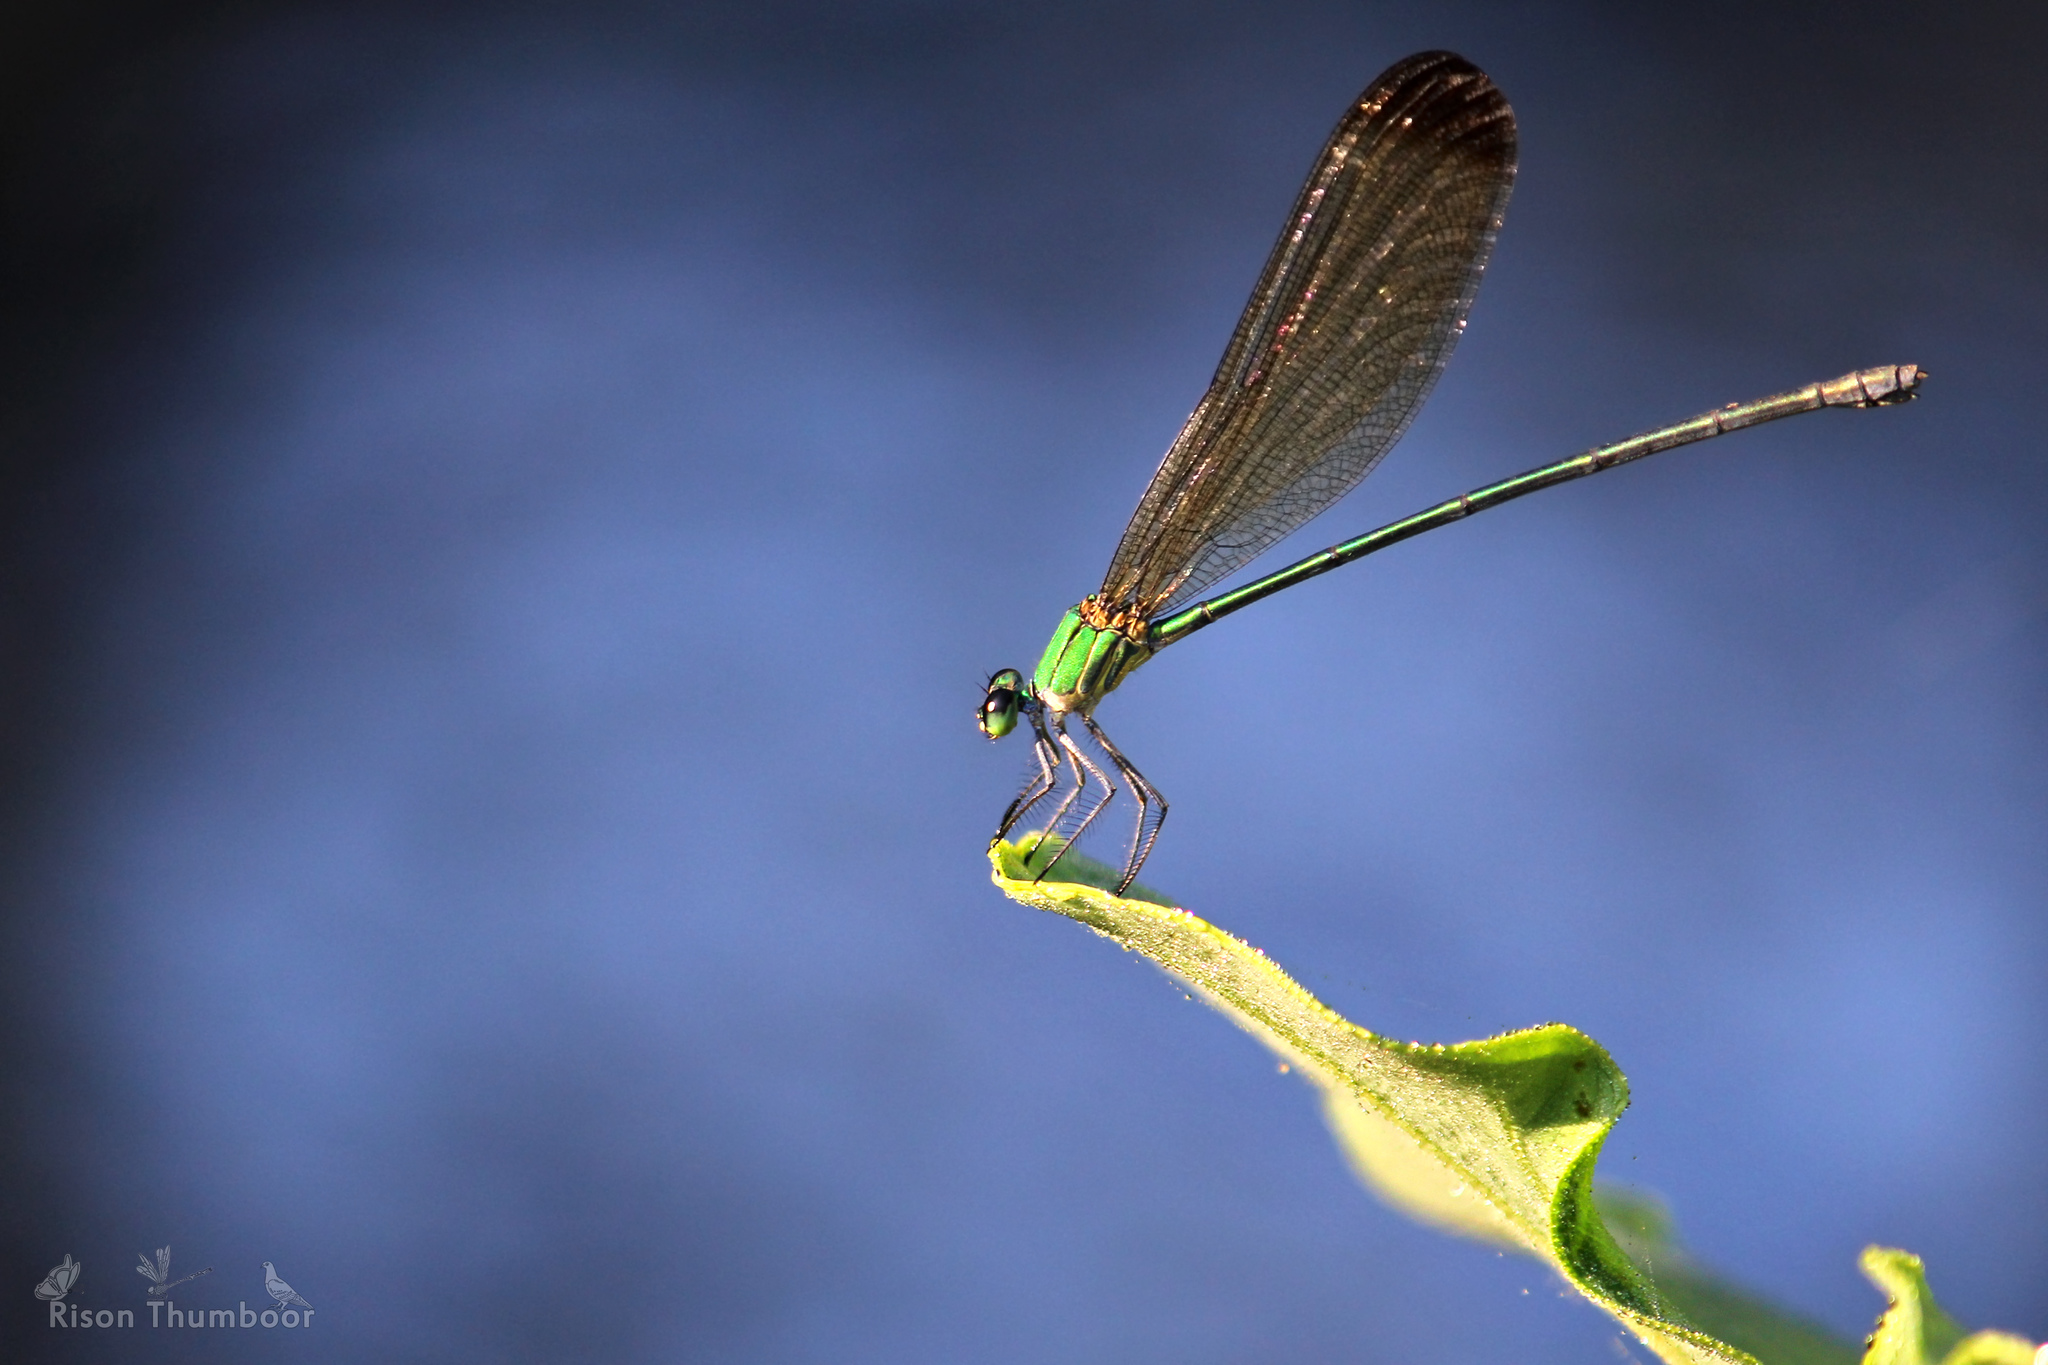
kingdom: Animalia
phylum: Arthropoda
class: Insecta
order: Odonata
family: Calopterygidae
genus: Vestalis
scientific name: Vestalis apicalis
